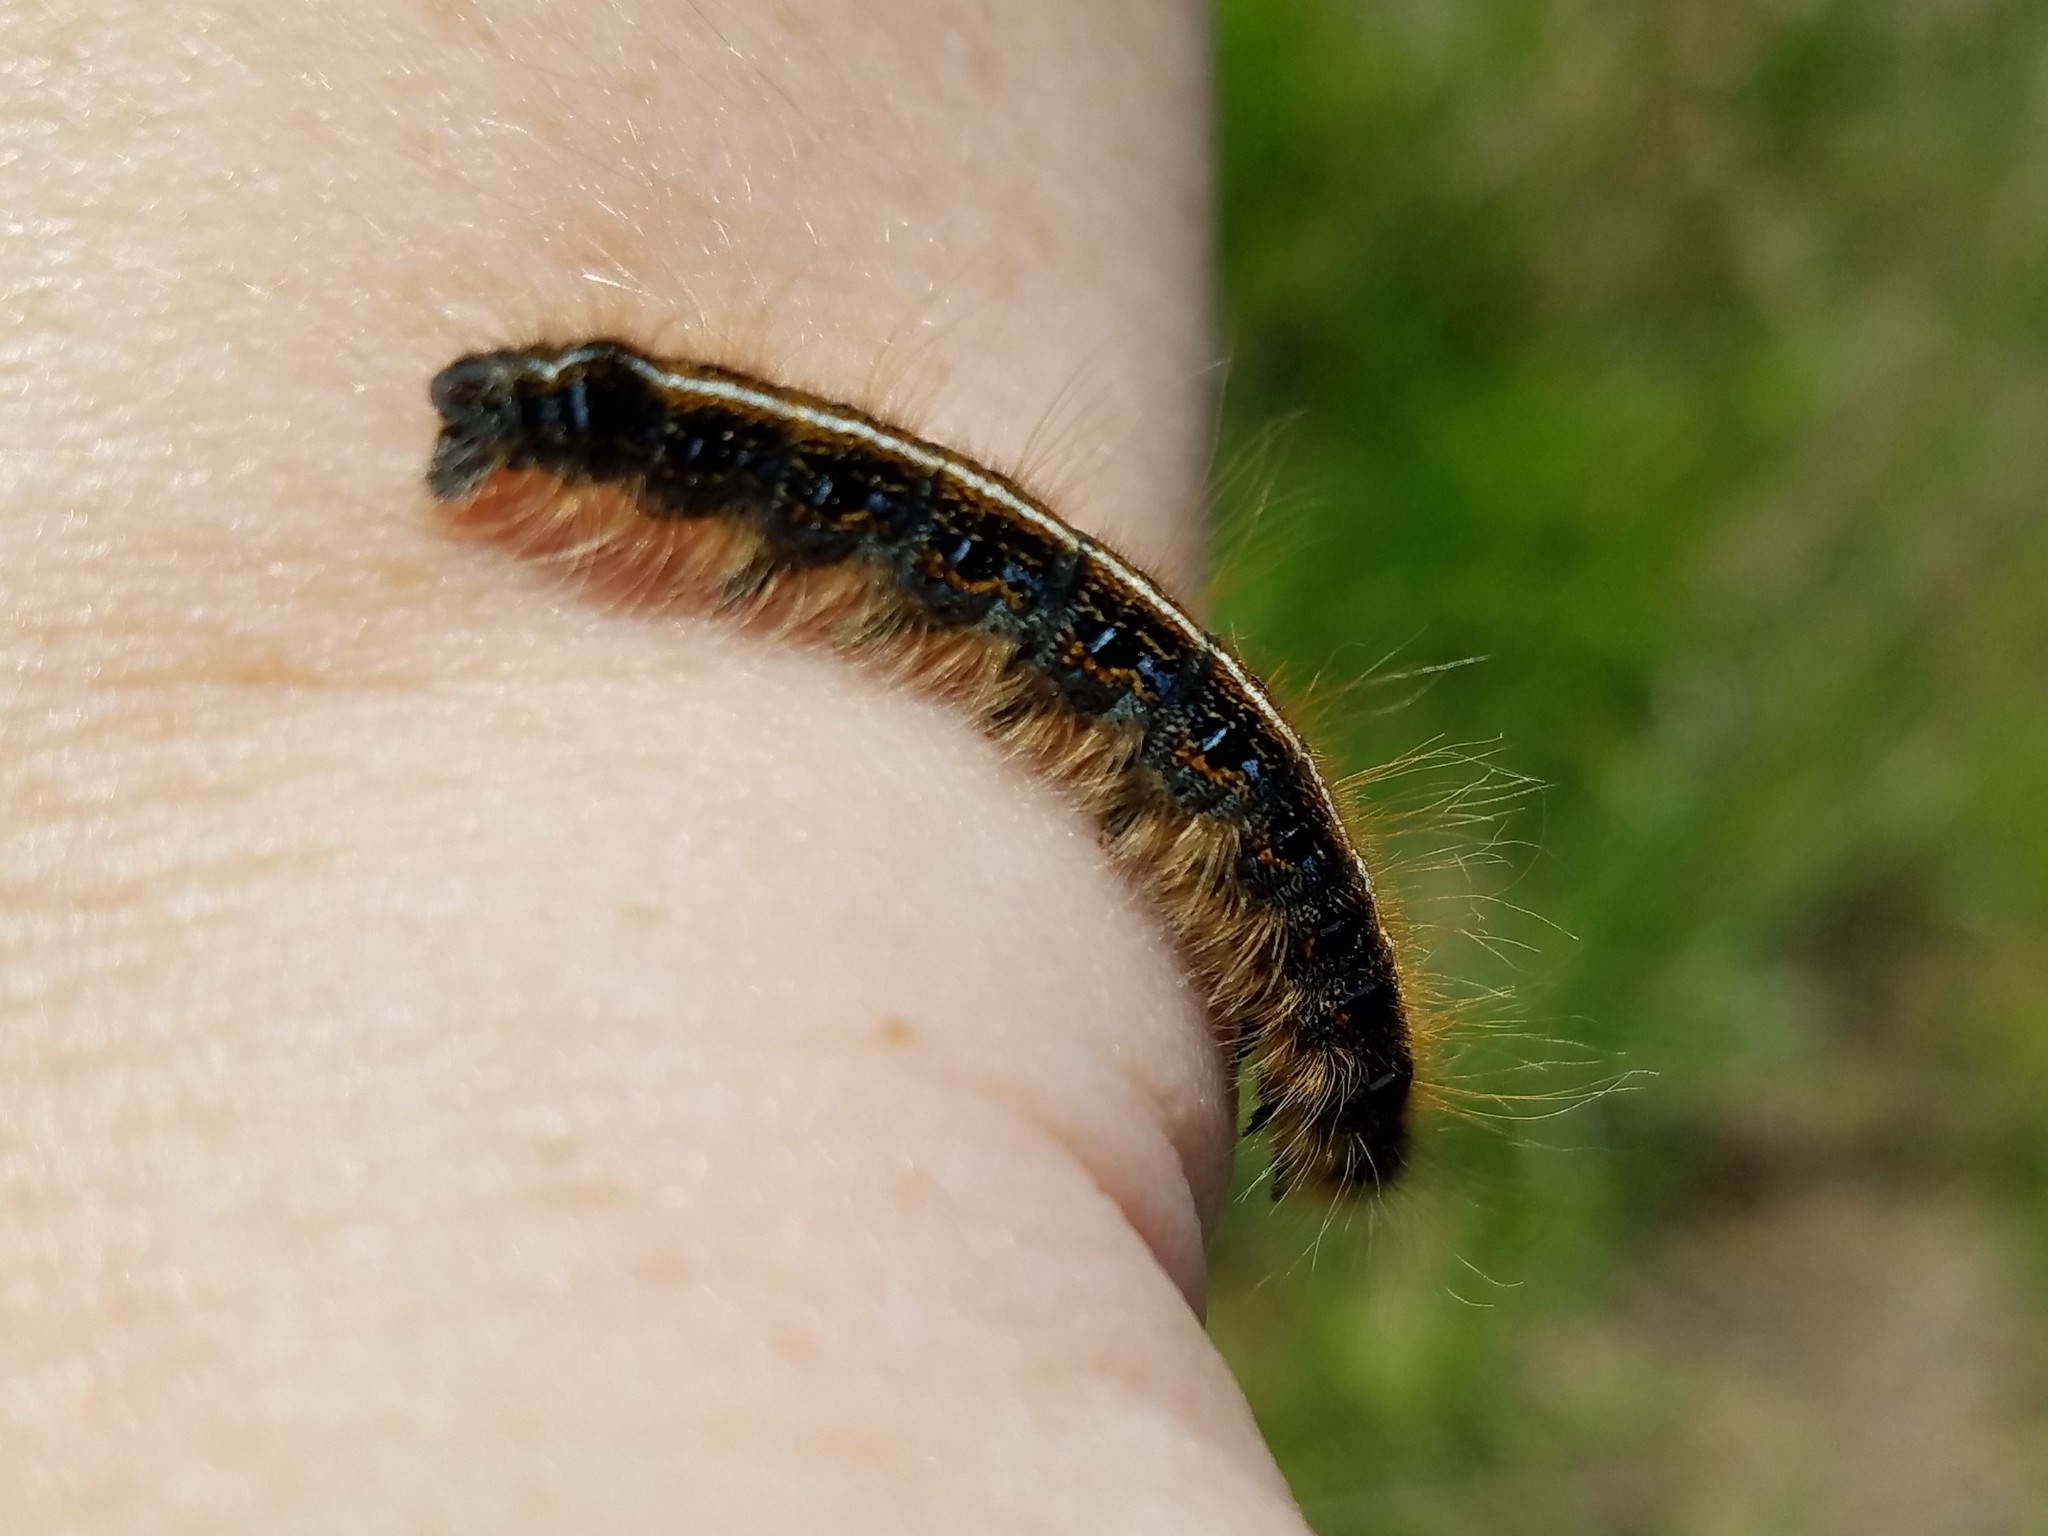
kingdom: Animalia
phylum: Arthropoda
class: Insecta
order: Lepidoptera
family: Lasiocampidae
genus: Malacosoma
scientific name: Malacosoma americana
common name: Eastern tent caterpillar moth
